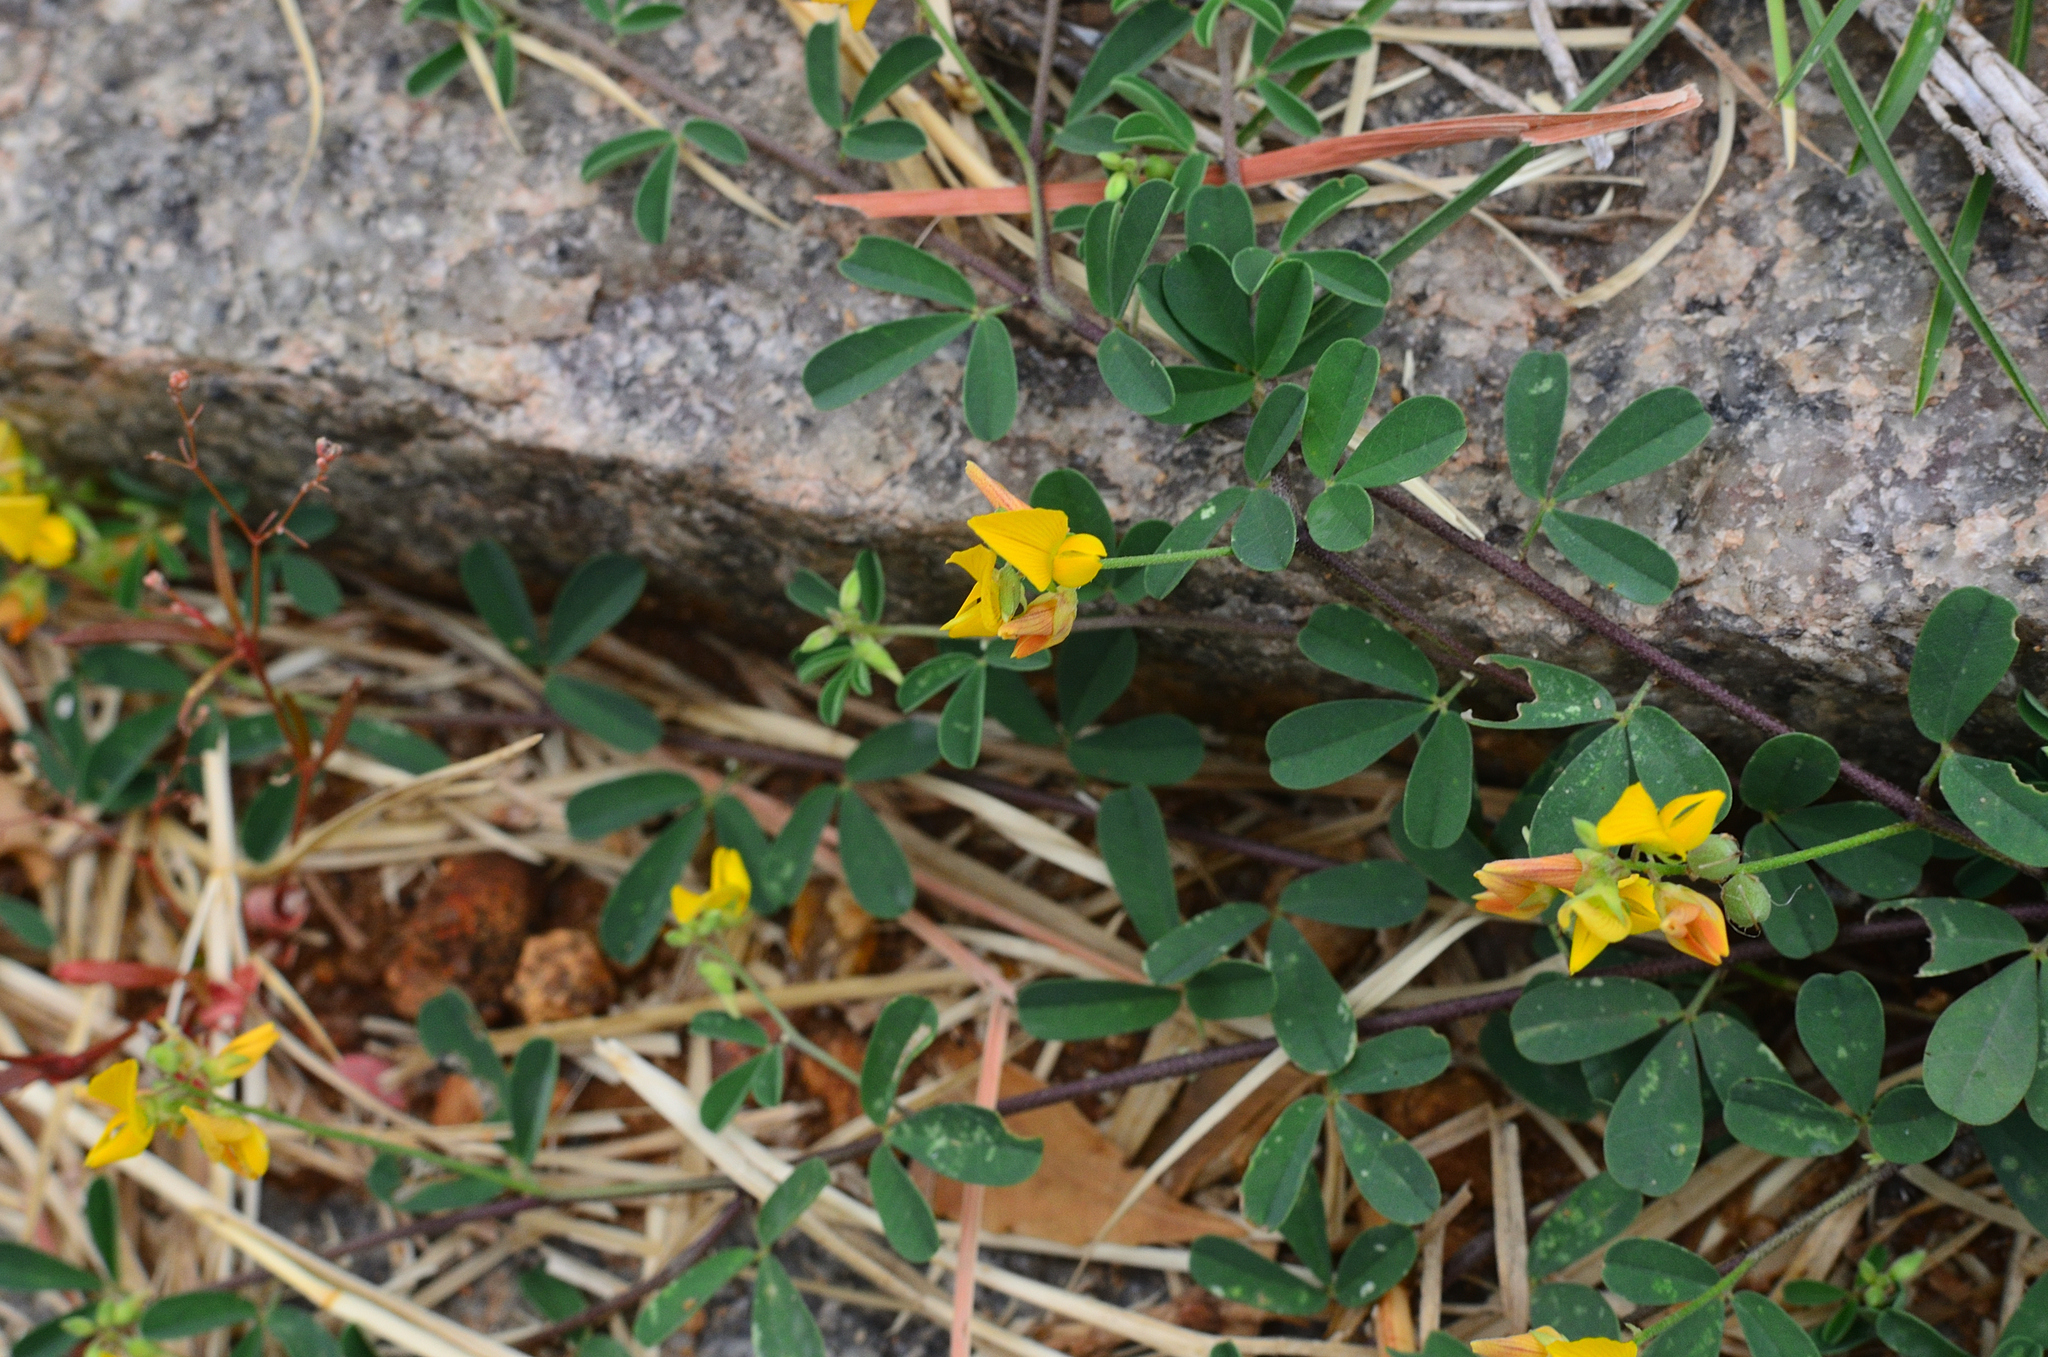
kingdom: Plantae
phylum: Tracheophyta
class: Magnoliopsida
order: Fabales
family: Fabaceae
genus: Crotalaria
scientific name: Crotalaria medicaginea
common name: Trefoil rattlepod
